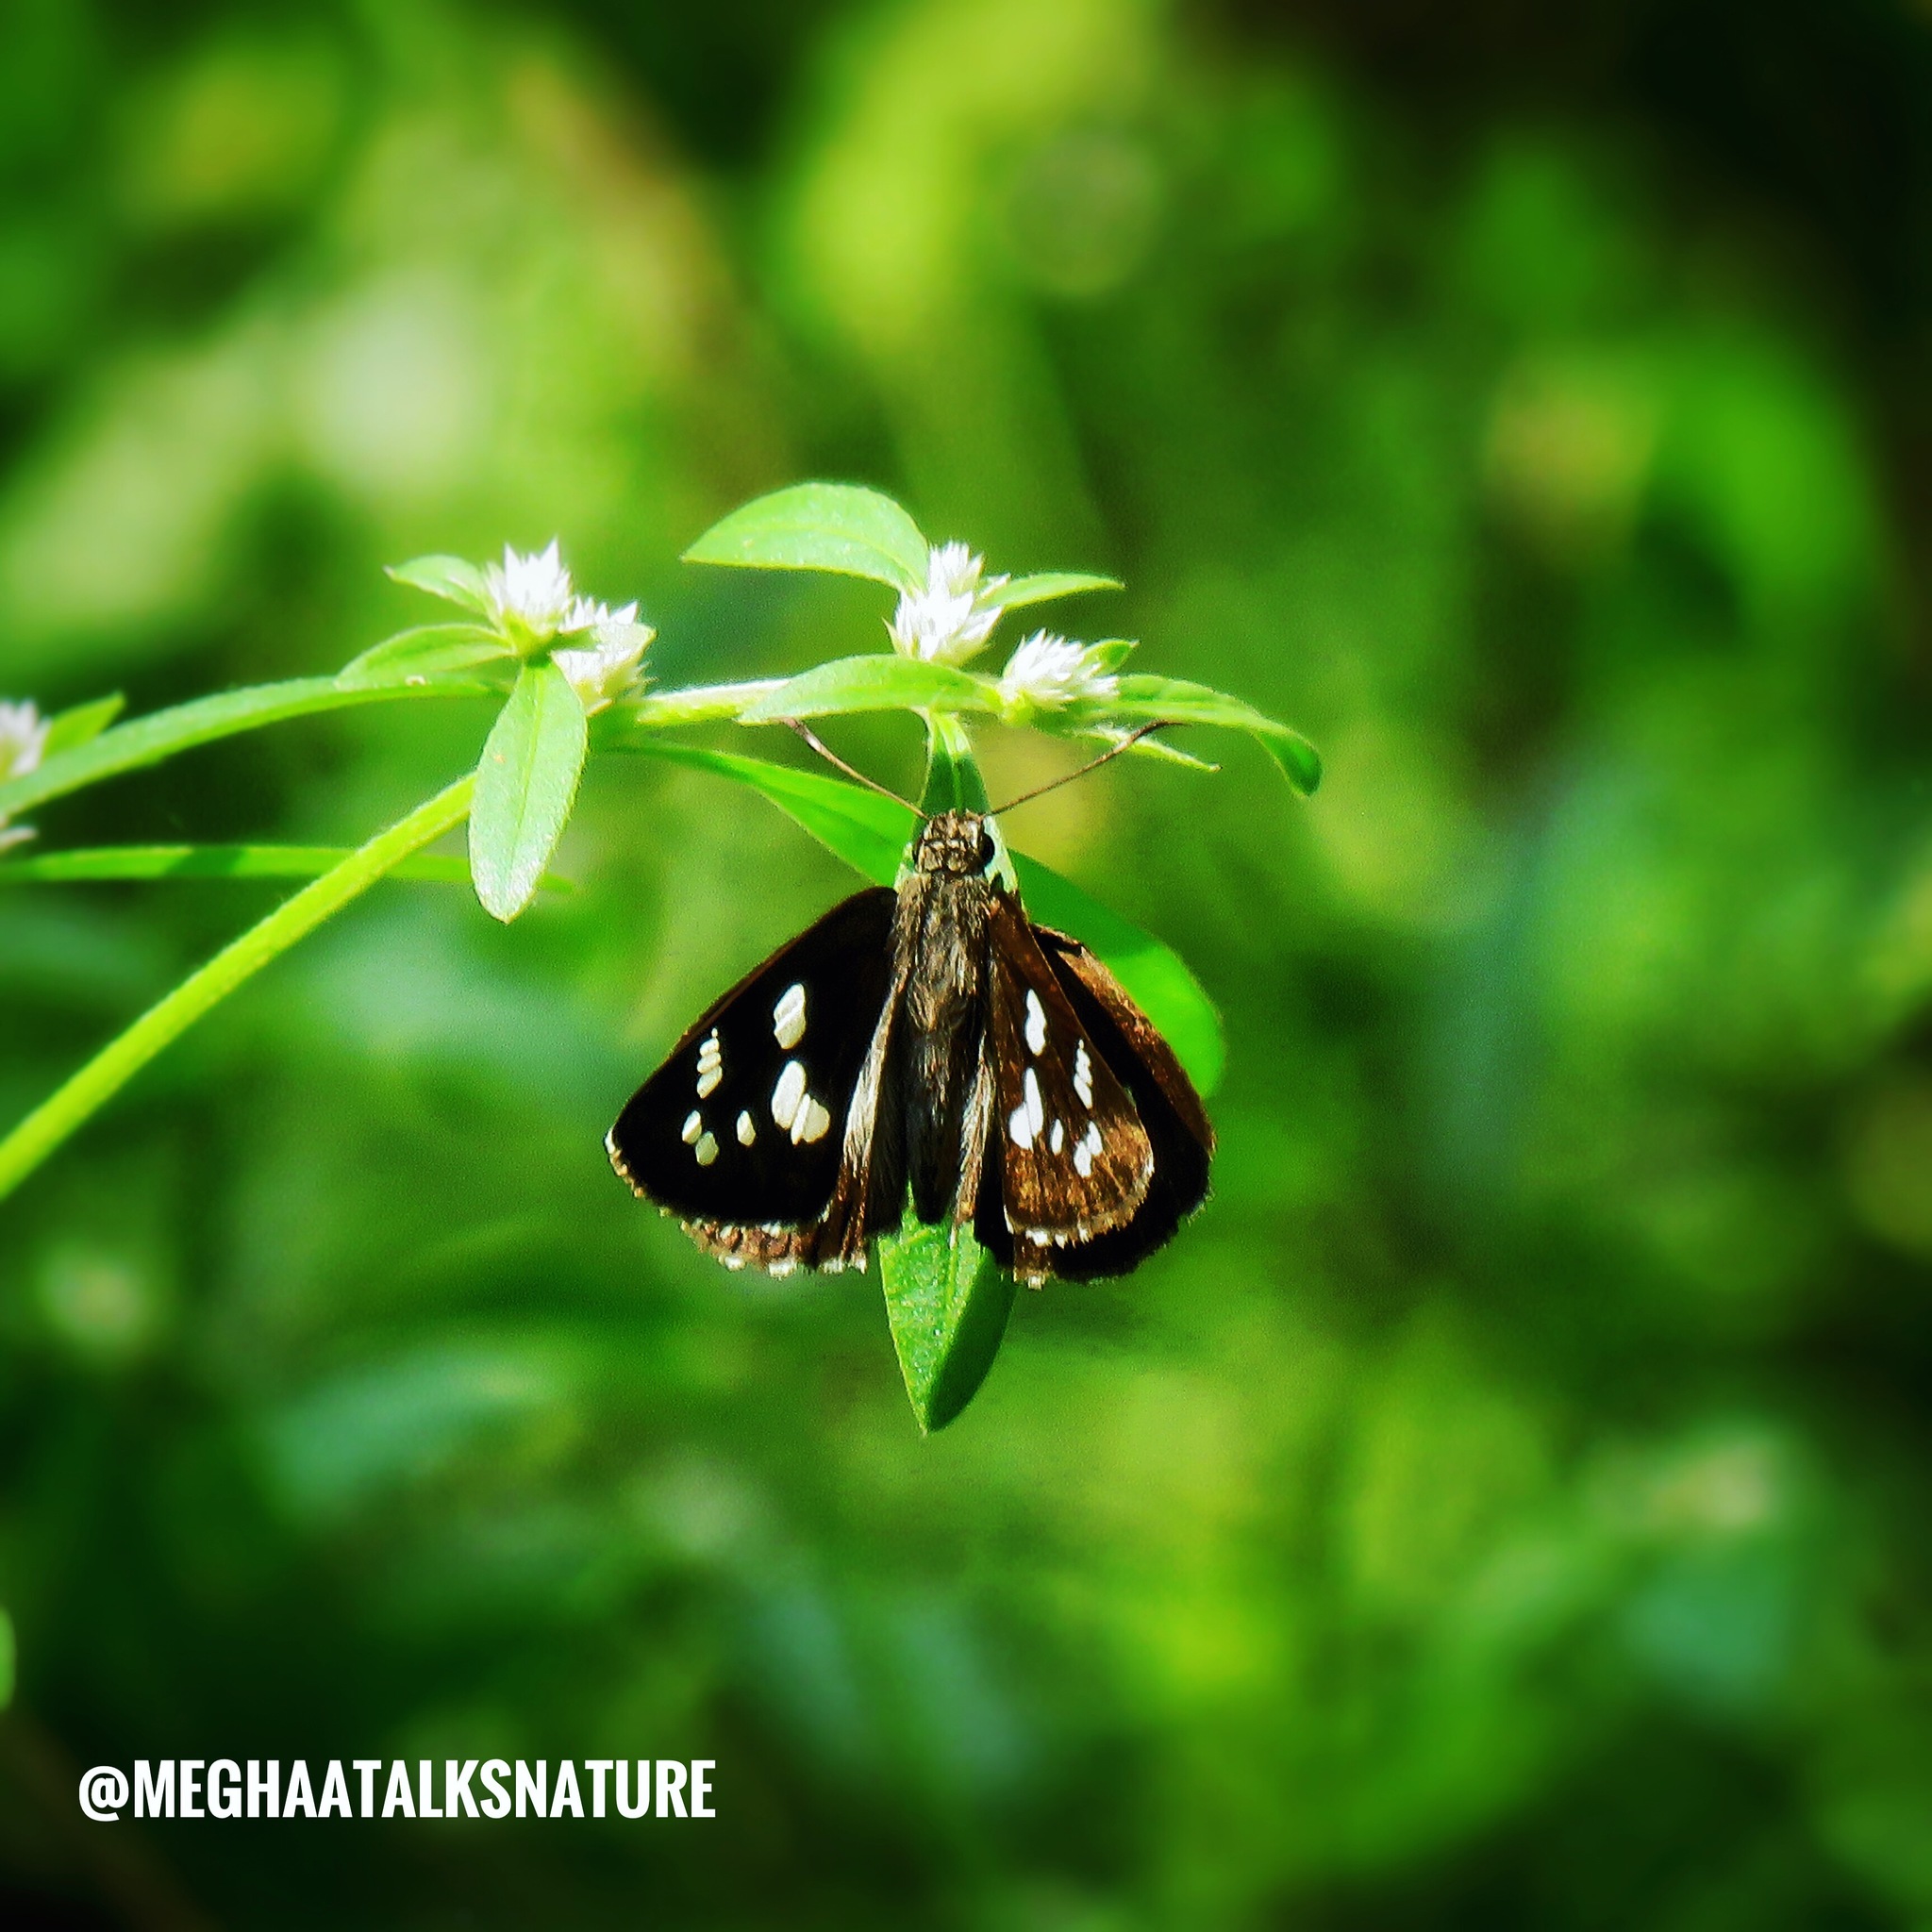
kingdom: Animalia
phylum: Arthropoda
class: Insecta
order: Lepidoptera
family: Hesperiidae
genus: Udaspes
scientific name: Udaspes folus
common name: Grass demon
